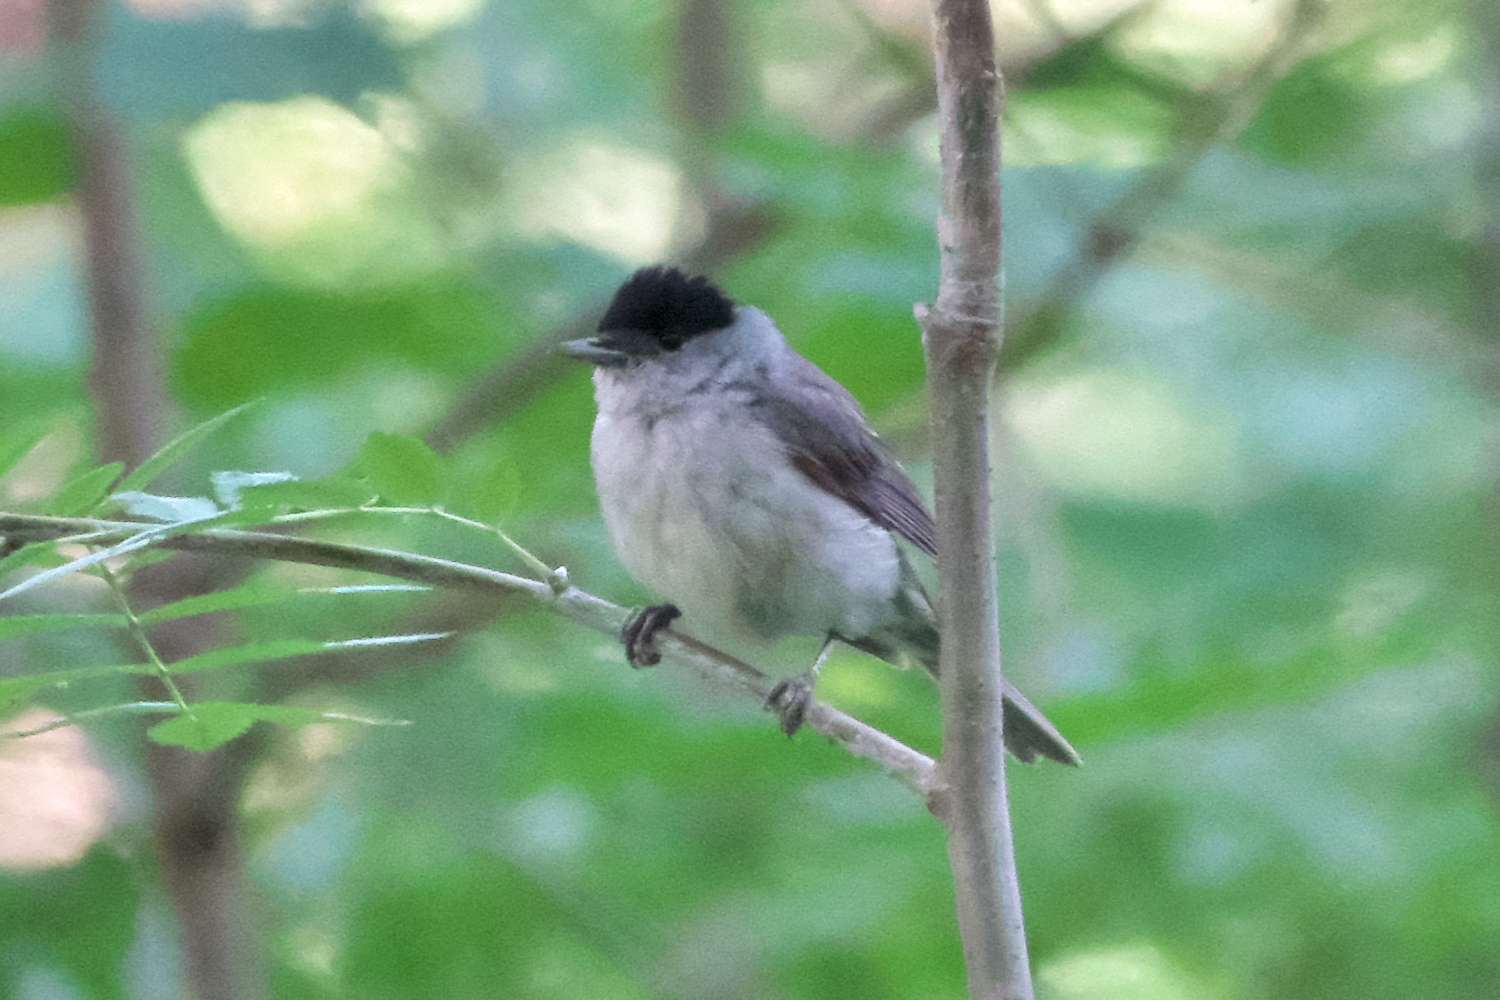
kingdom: Animalia
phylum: Chordata
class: Aves
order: Passeriformes
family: Sylviidae
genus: Sylvia
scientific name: Sylvia atricapilla
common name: Eurasian blackcap
